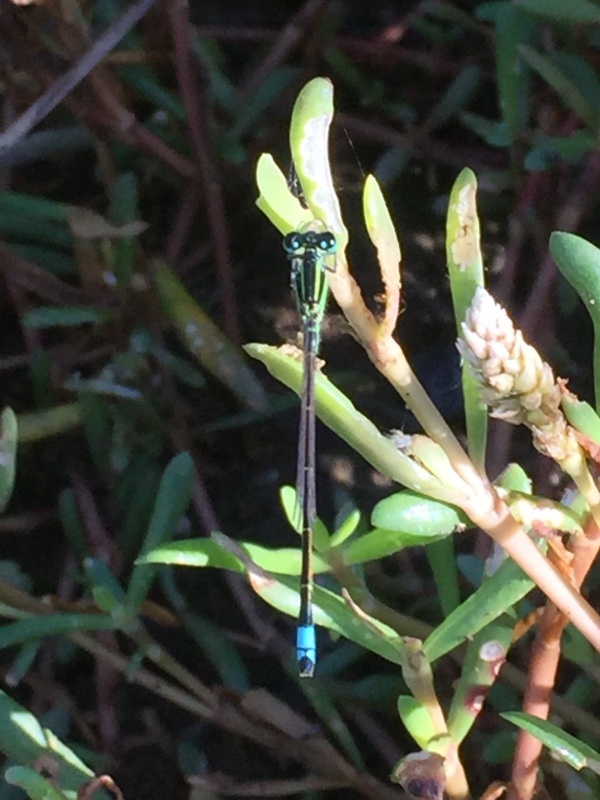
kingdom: Animalia
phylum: Arthropoda
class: Insecta
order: Odonata
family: Coenagrionidae
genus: Ischnura
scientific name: Ischnura ramburii
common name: Rambur's forktail
